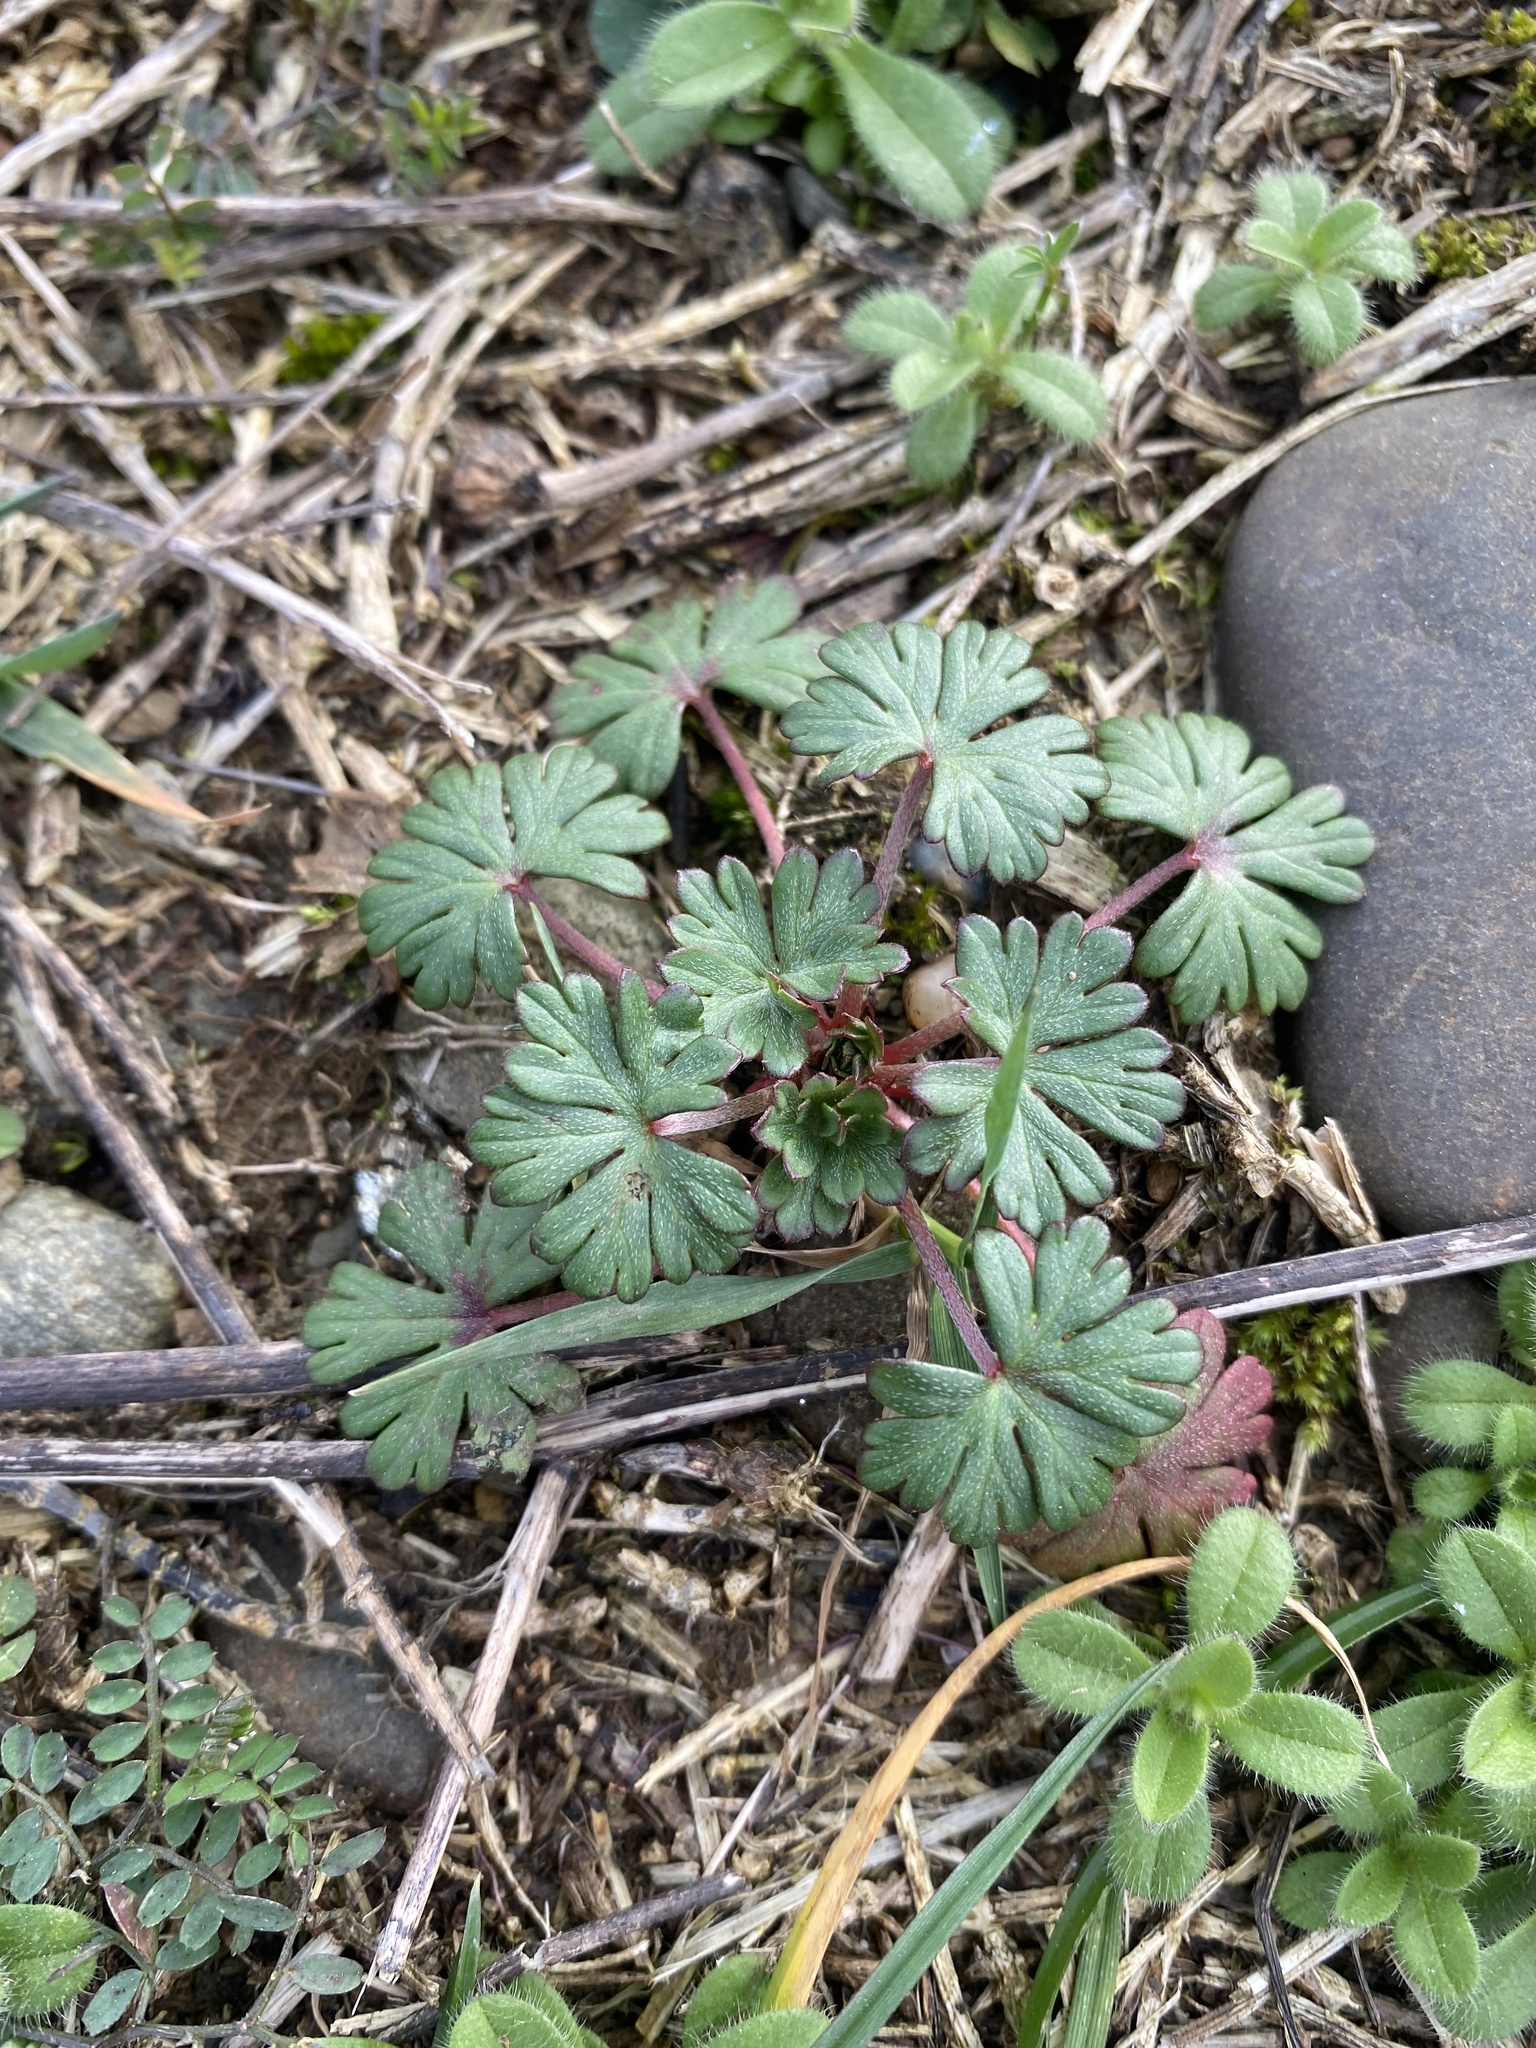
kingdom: Plantae
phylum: Tracheophyta
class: Magnoliopsida
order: Geraniales
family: Geraniaceae
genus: Geranium
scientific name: Geranium columbinum
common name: Long-stalked crane's-bill
